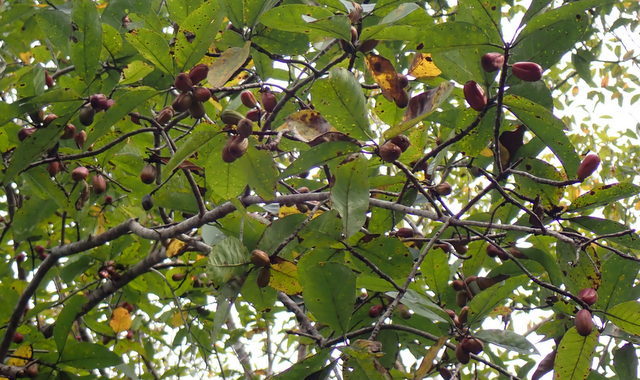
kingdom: Plantae
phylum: Tracheophyta
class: Magnoliopsida
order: Cornales
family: Nyssaceae
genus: Nyssa
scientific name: Nyssa ogeche
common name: Ogeechee tupelo
